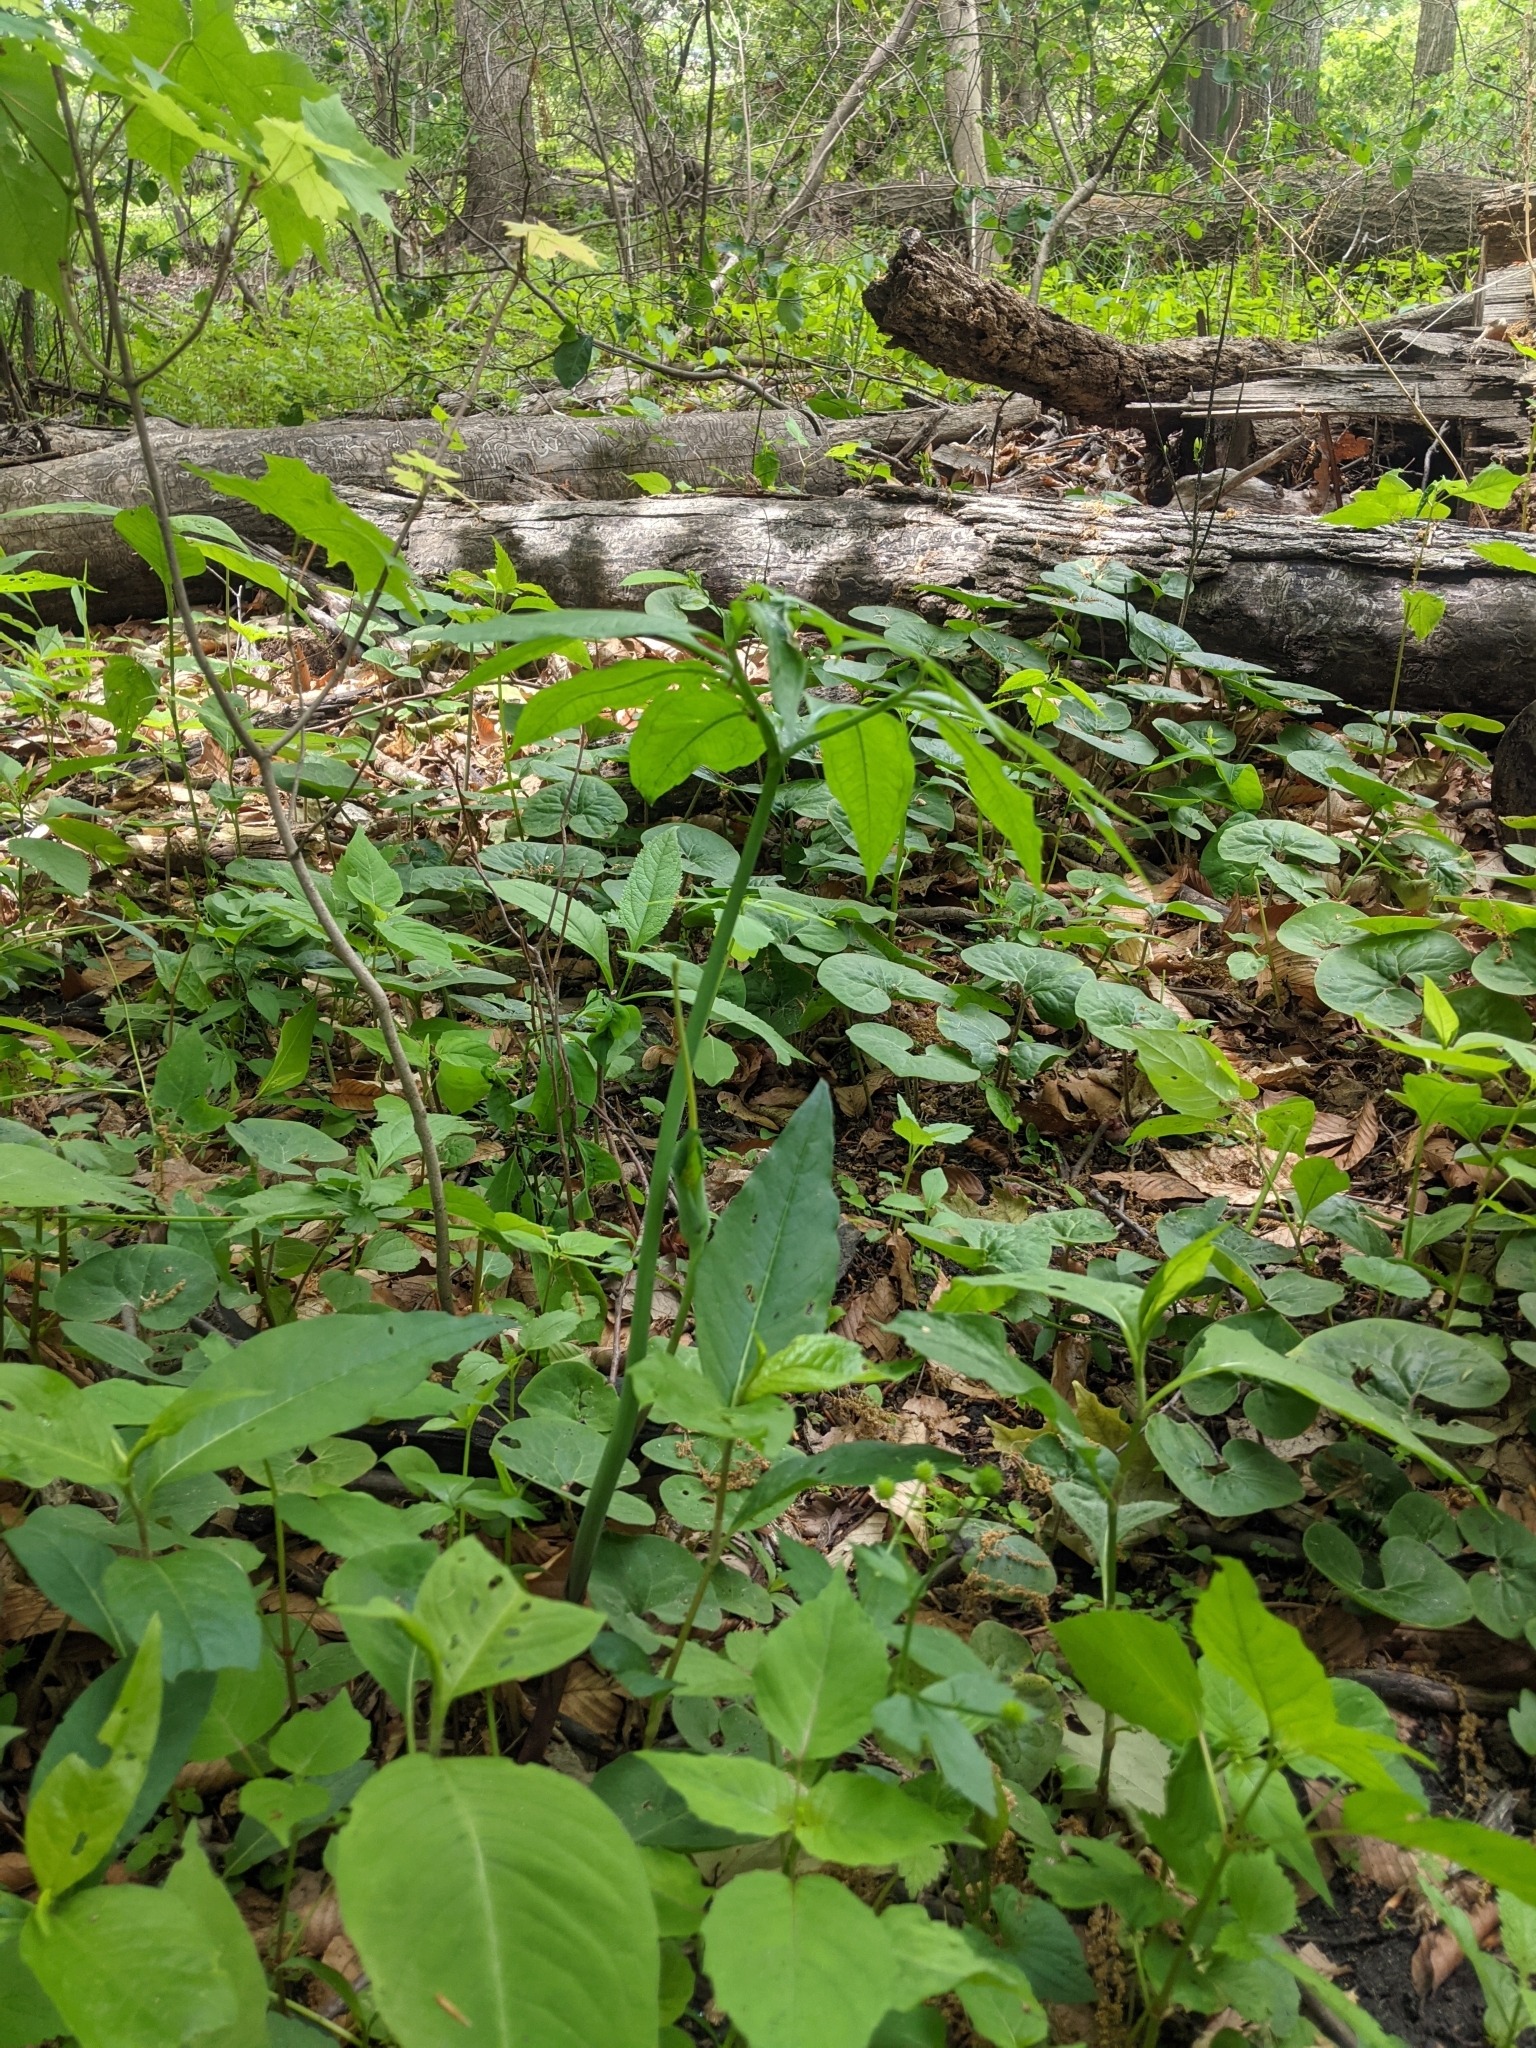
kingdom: Plantae
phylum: Tracheophyta
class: Liliopsida
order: Alismatales
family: Araceae
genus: Arisaema
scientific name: Arisaema dracontium
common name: Dragon-arum
